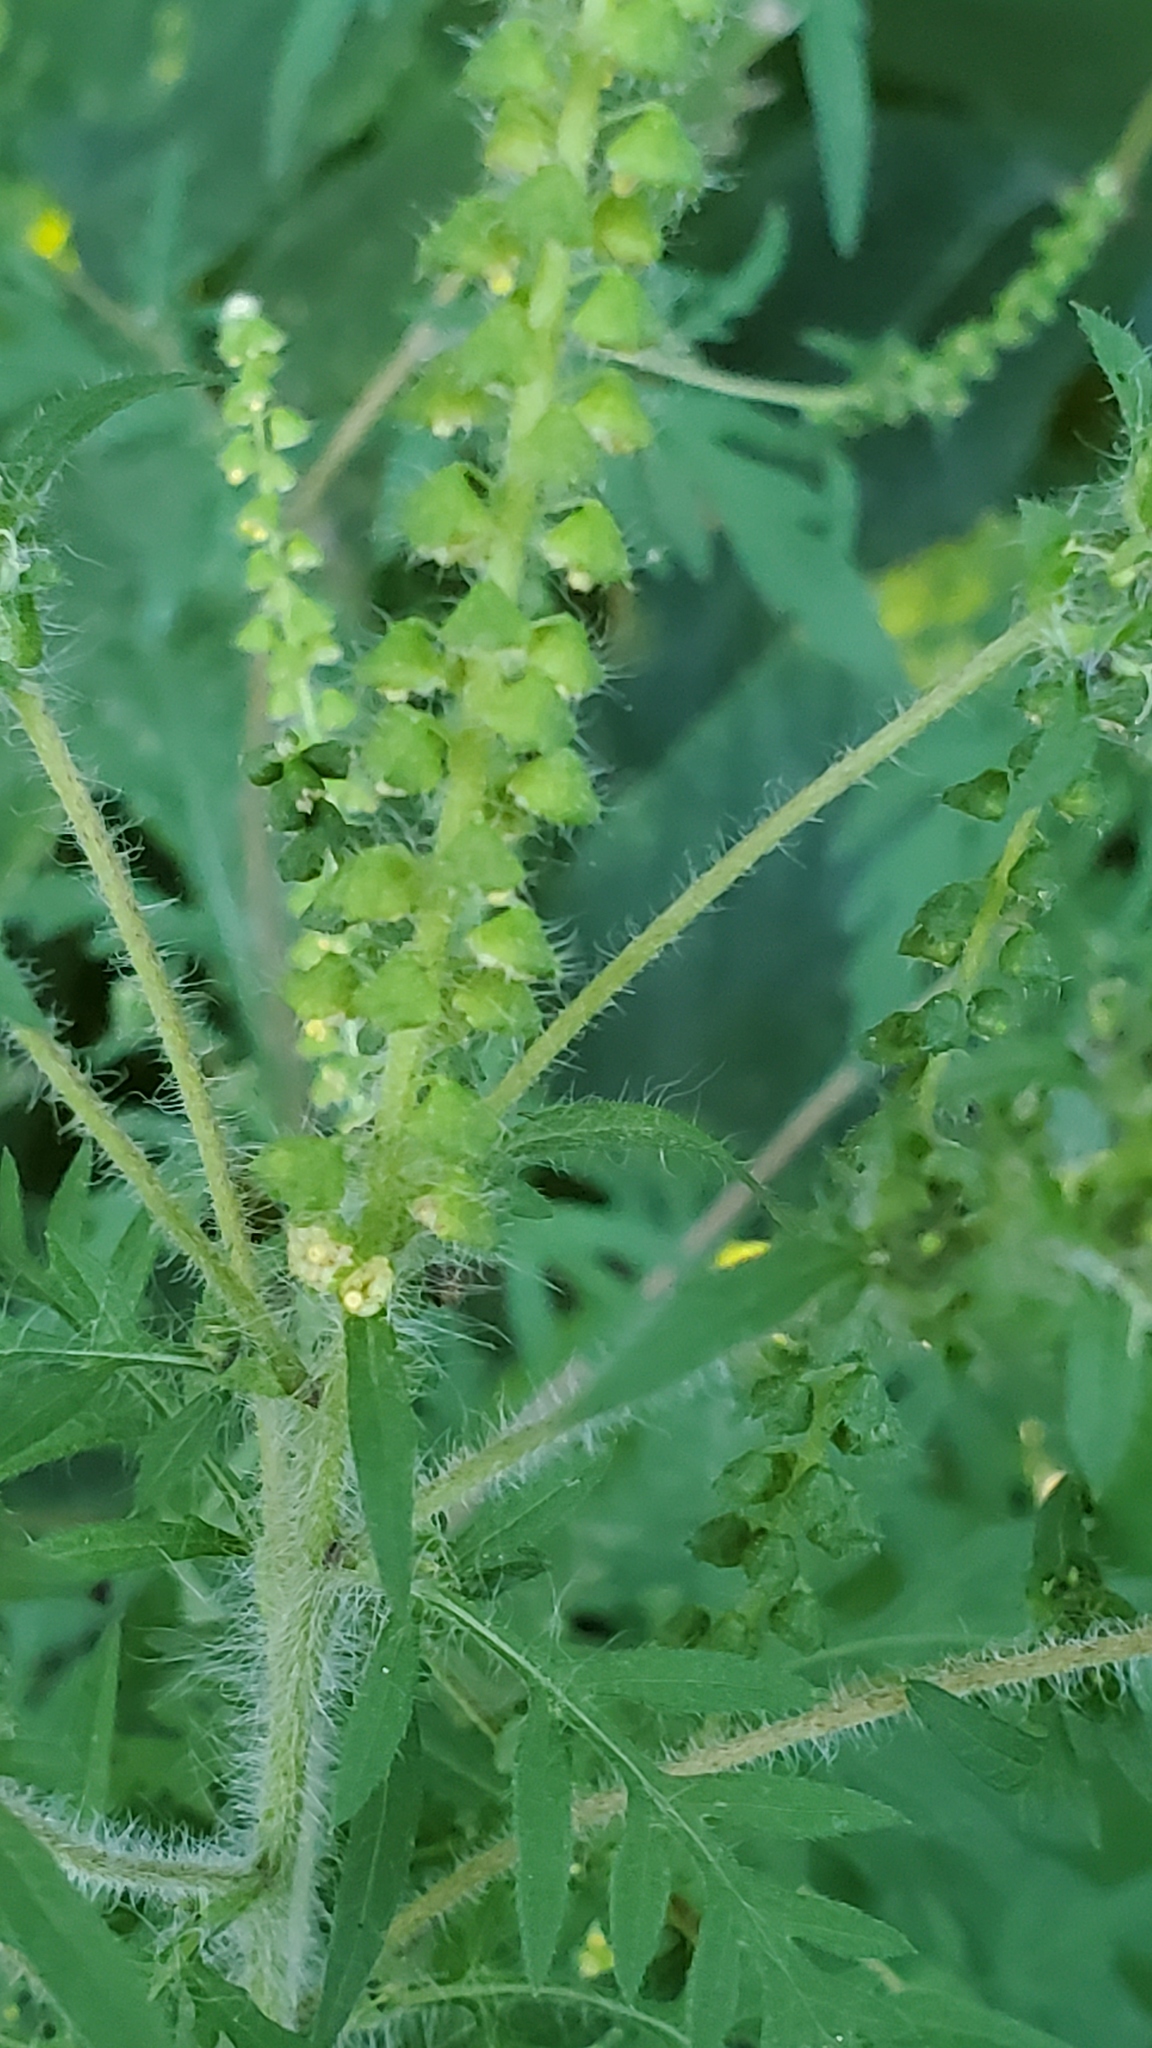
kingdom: Plantae
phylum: Tracheophyta
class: Magnoliopsida
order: Asterales
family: Asteraceae
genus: Ambrosia
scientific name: Ambrosia artemisiifolia
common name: Annual ragweed
